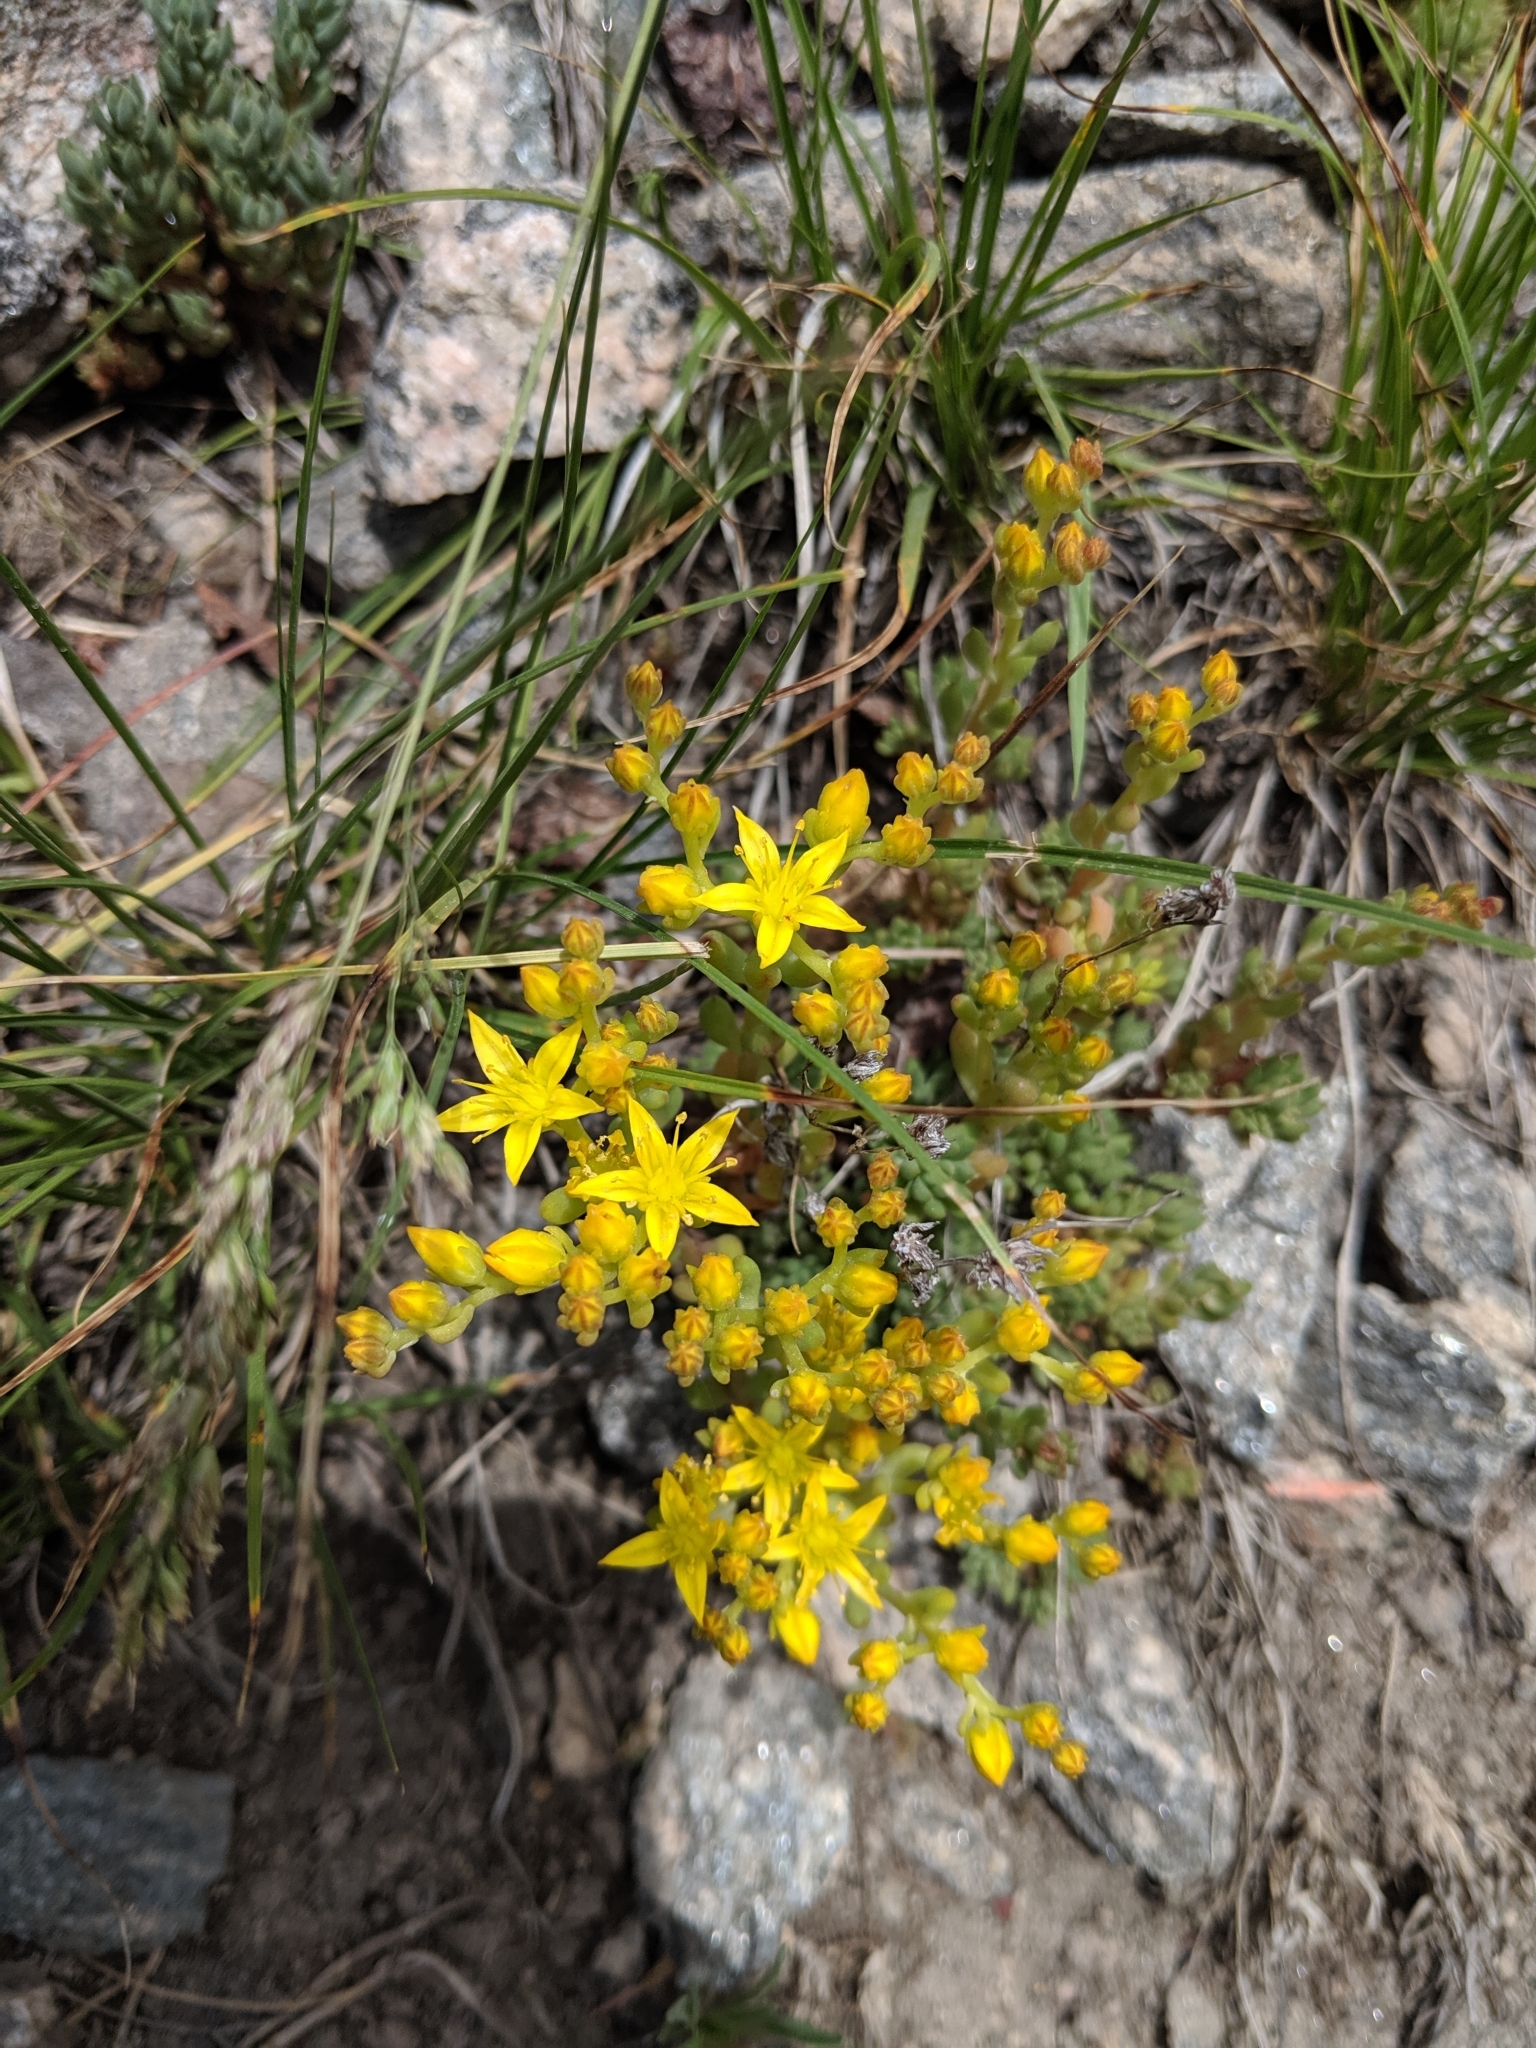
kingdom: Plantae
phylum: Tracheophyta
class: Magnoliopsida
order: Saxifragales
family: Crassulaceae
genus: Sedum
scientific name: Sedum lanceolatum
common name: Common stonecrop
